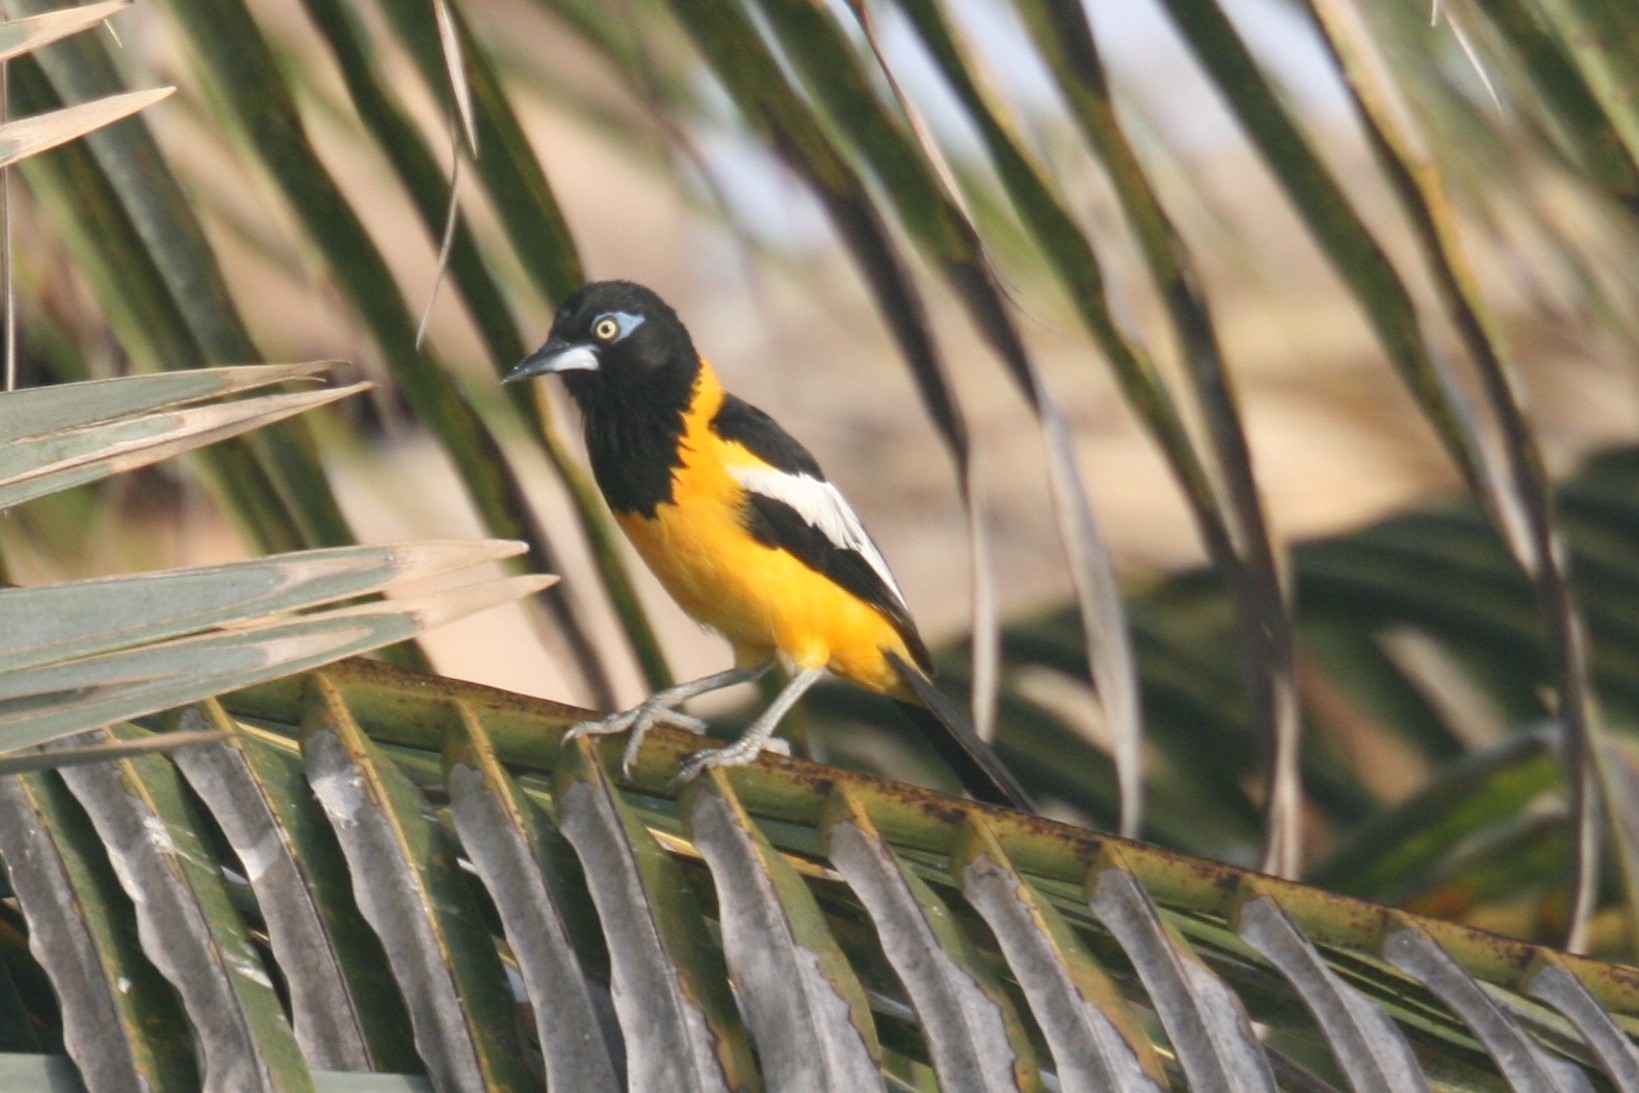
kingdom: Animalia
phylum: Chordata
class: Aves
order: Passeriformes
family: Icteridae
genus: Icterus
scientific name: Icterus icterus
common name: Venezuelan troupial
